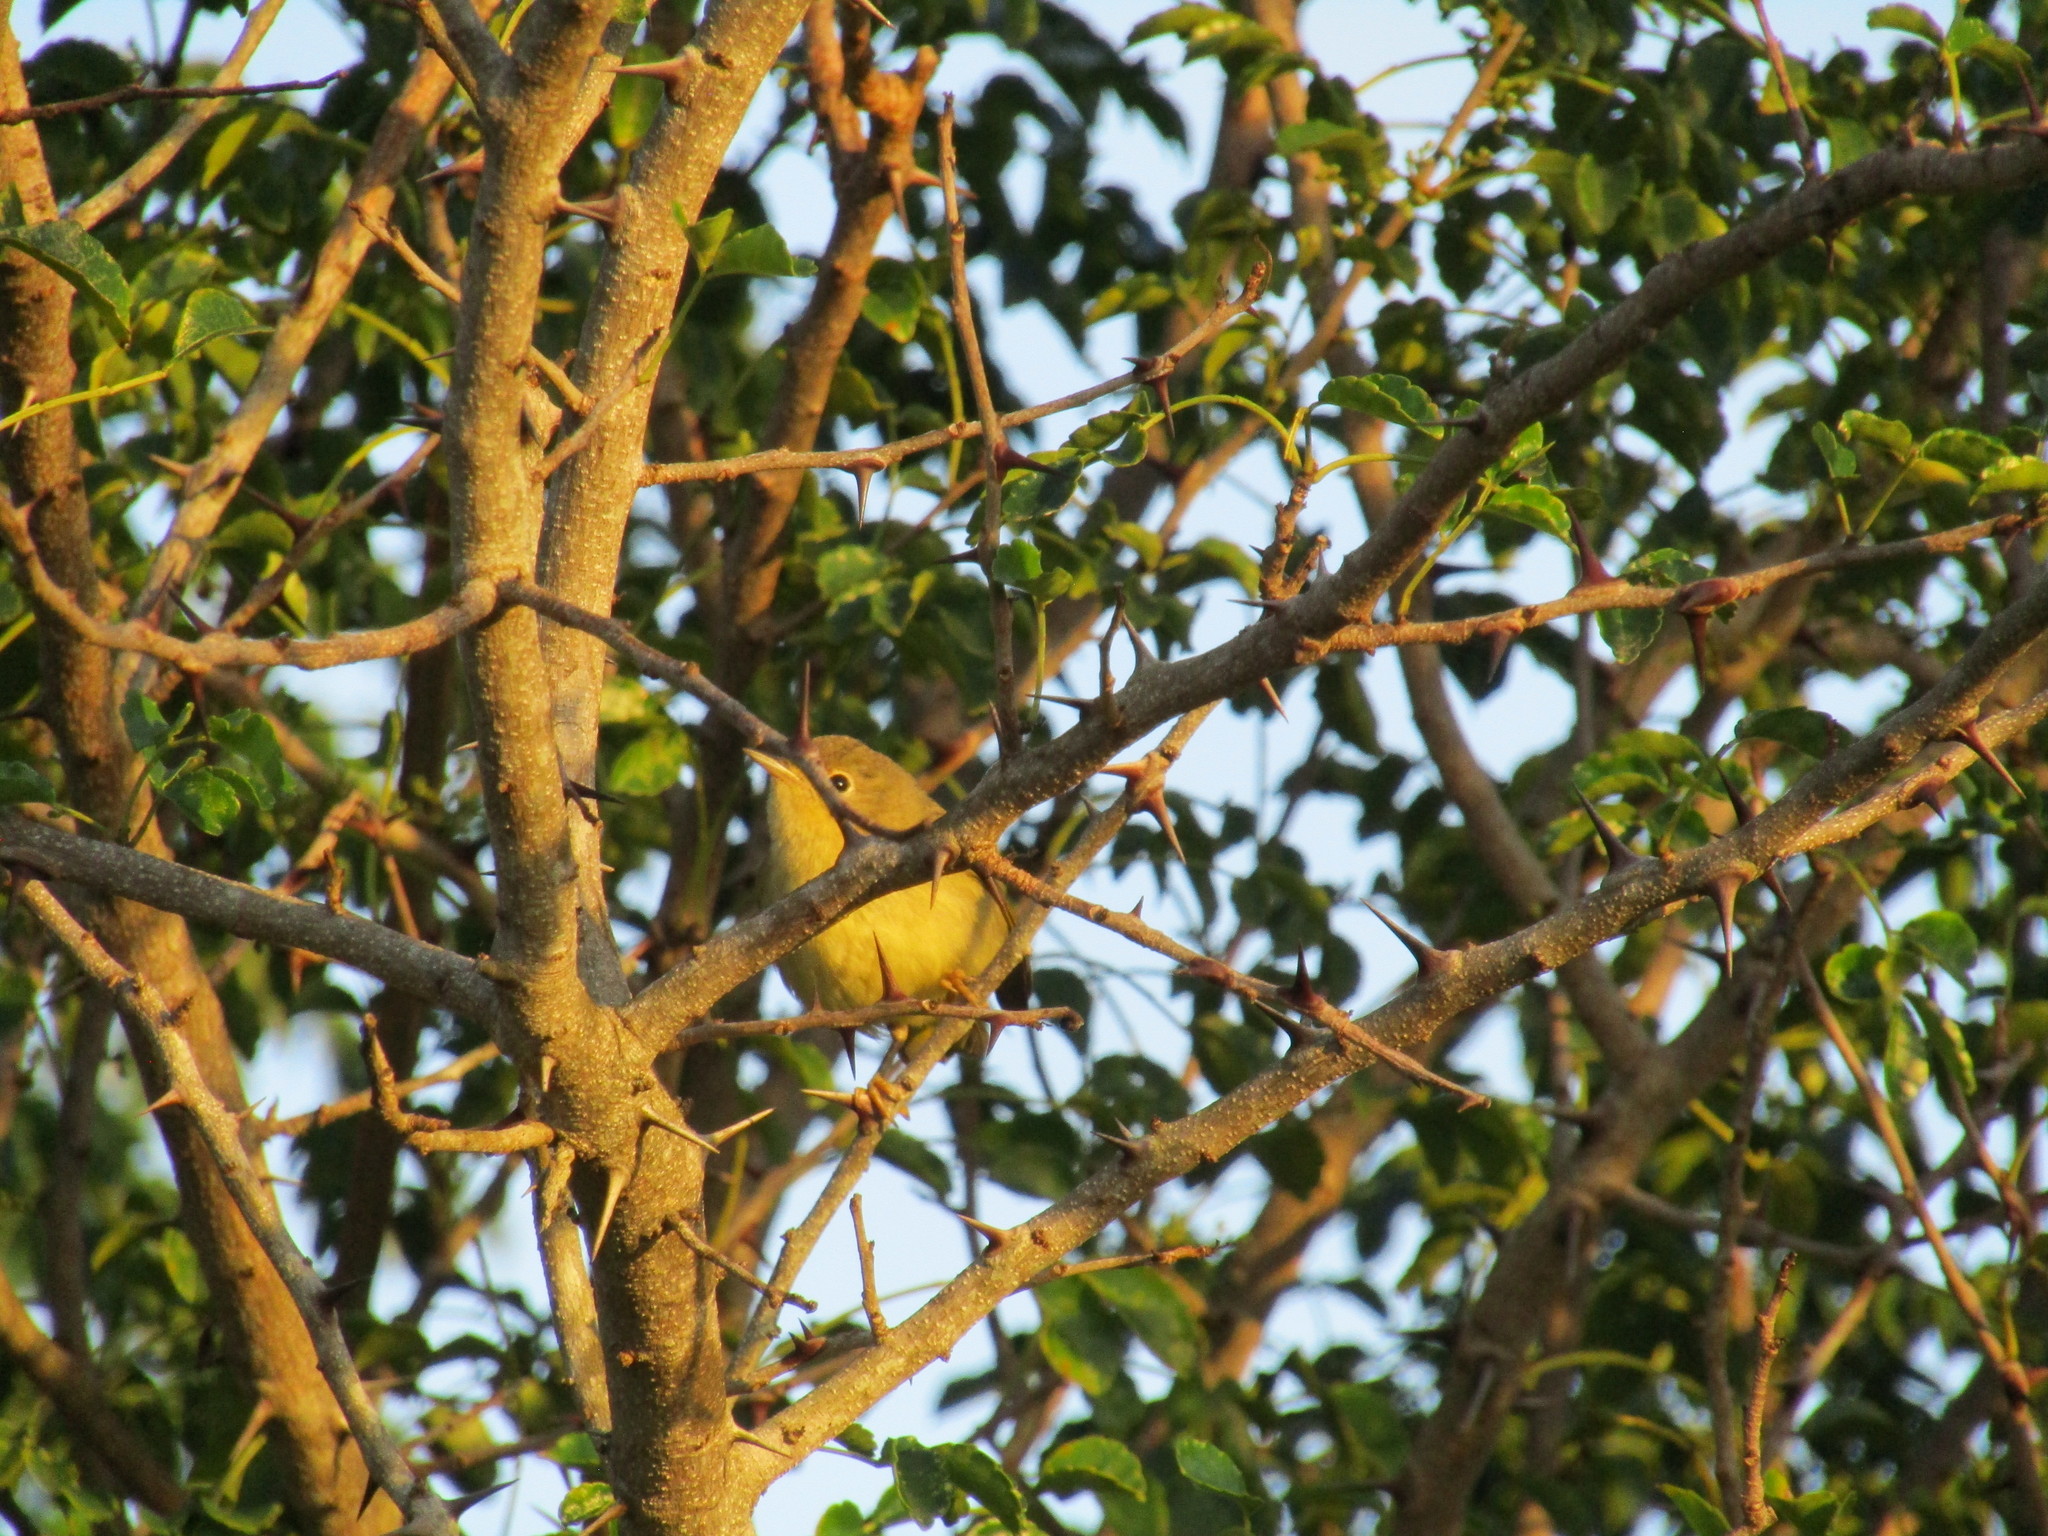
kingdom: Animalia
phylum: Chordata
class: Aves
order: Passeriformes
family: Parulidae
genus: Setophaga
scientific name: Setophaga petechia
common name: Yellow warbler
